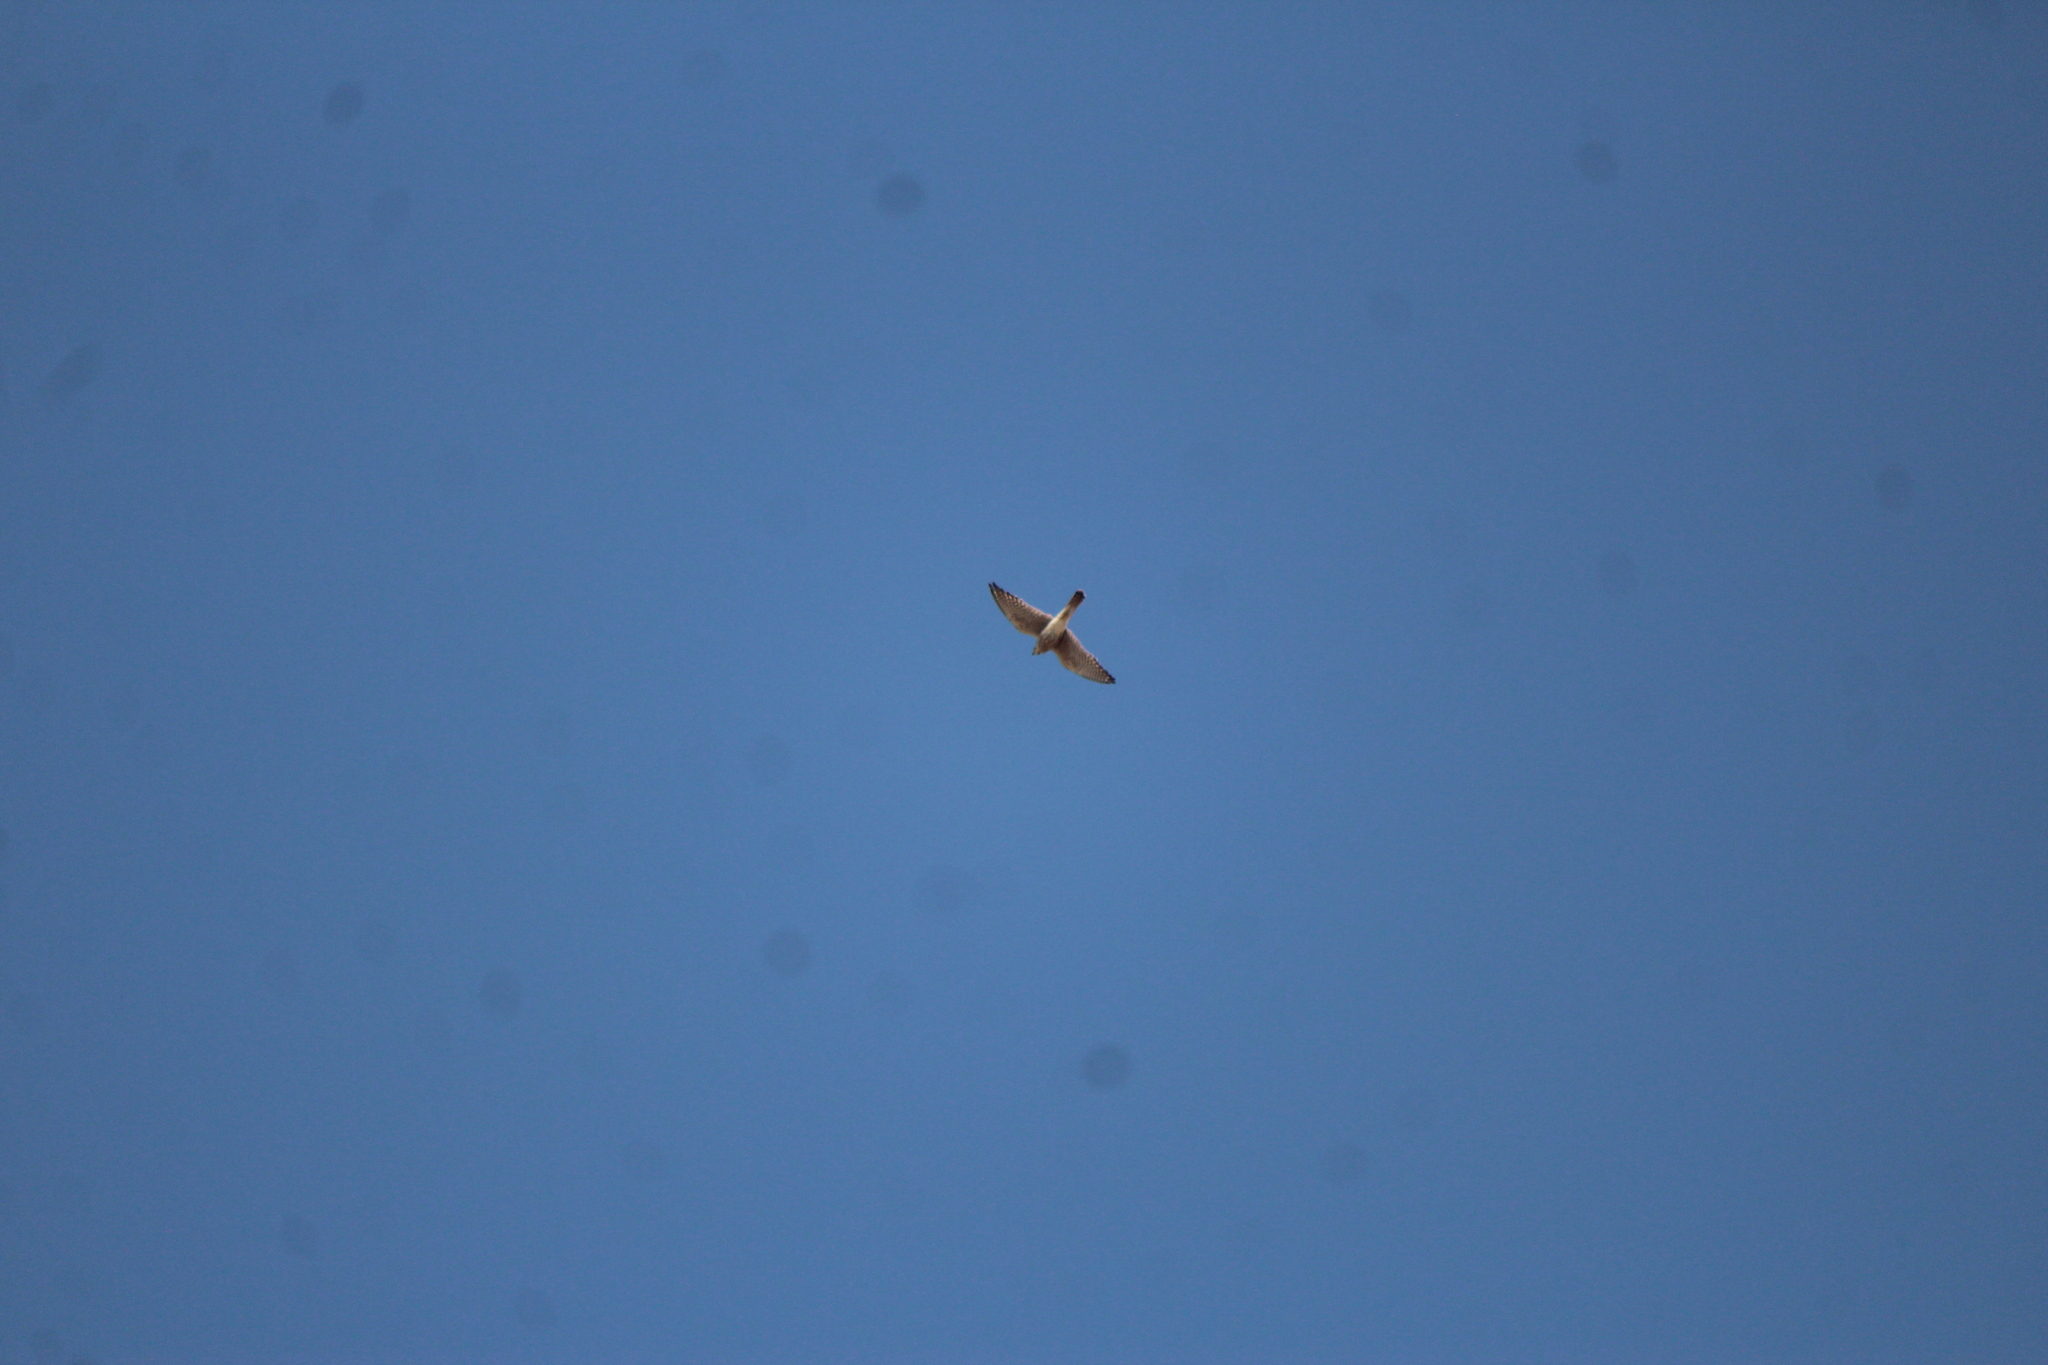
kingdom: Animalia
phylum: Chordata
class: Aves
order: Falconiformes
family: Falconidae
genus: Falco
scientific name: Falco sparverius
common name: American kestrel
